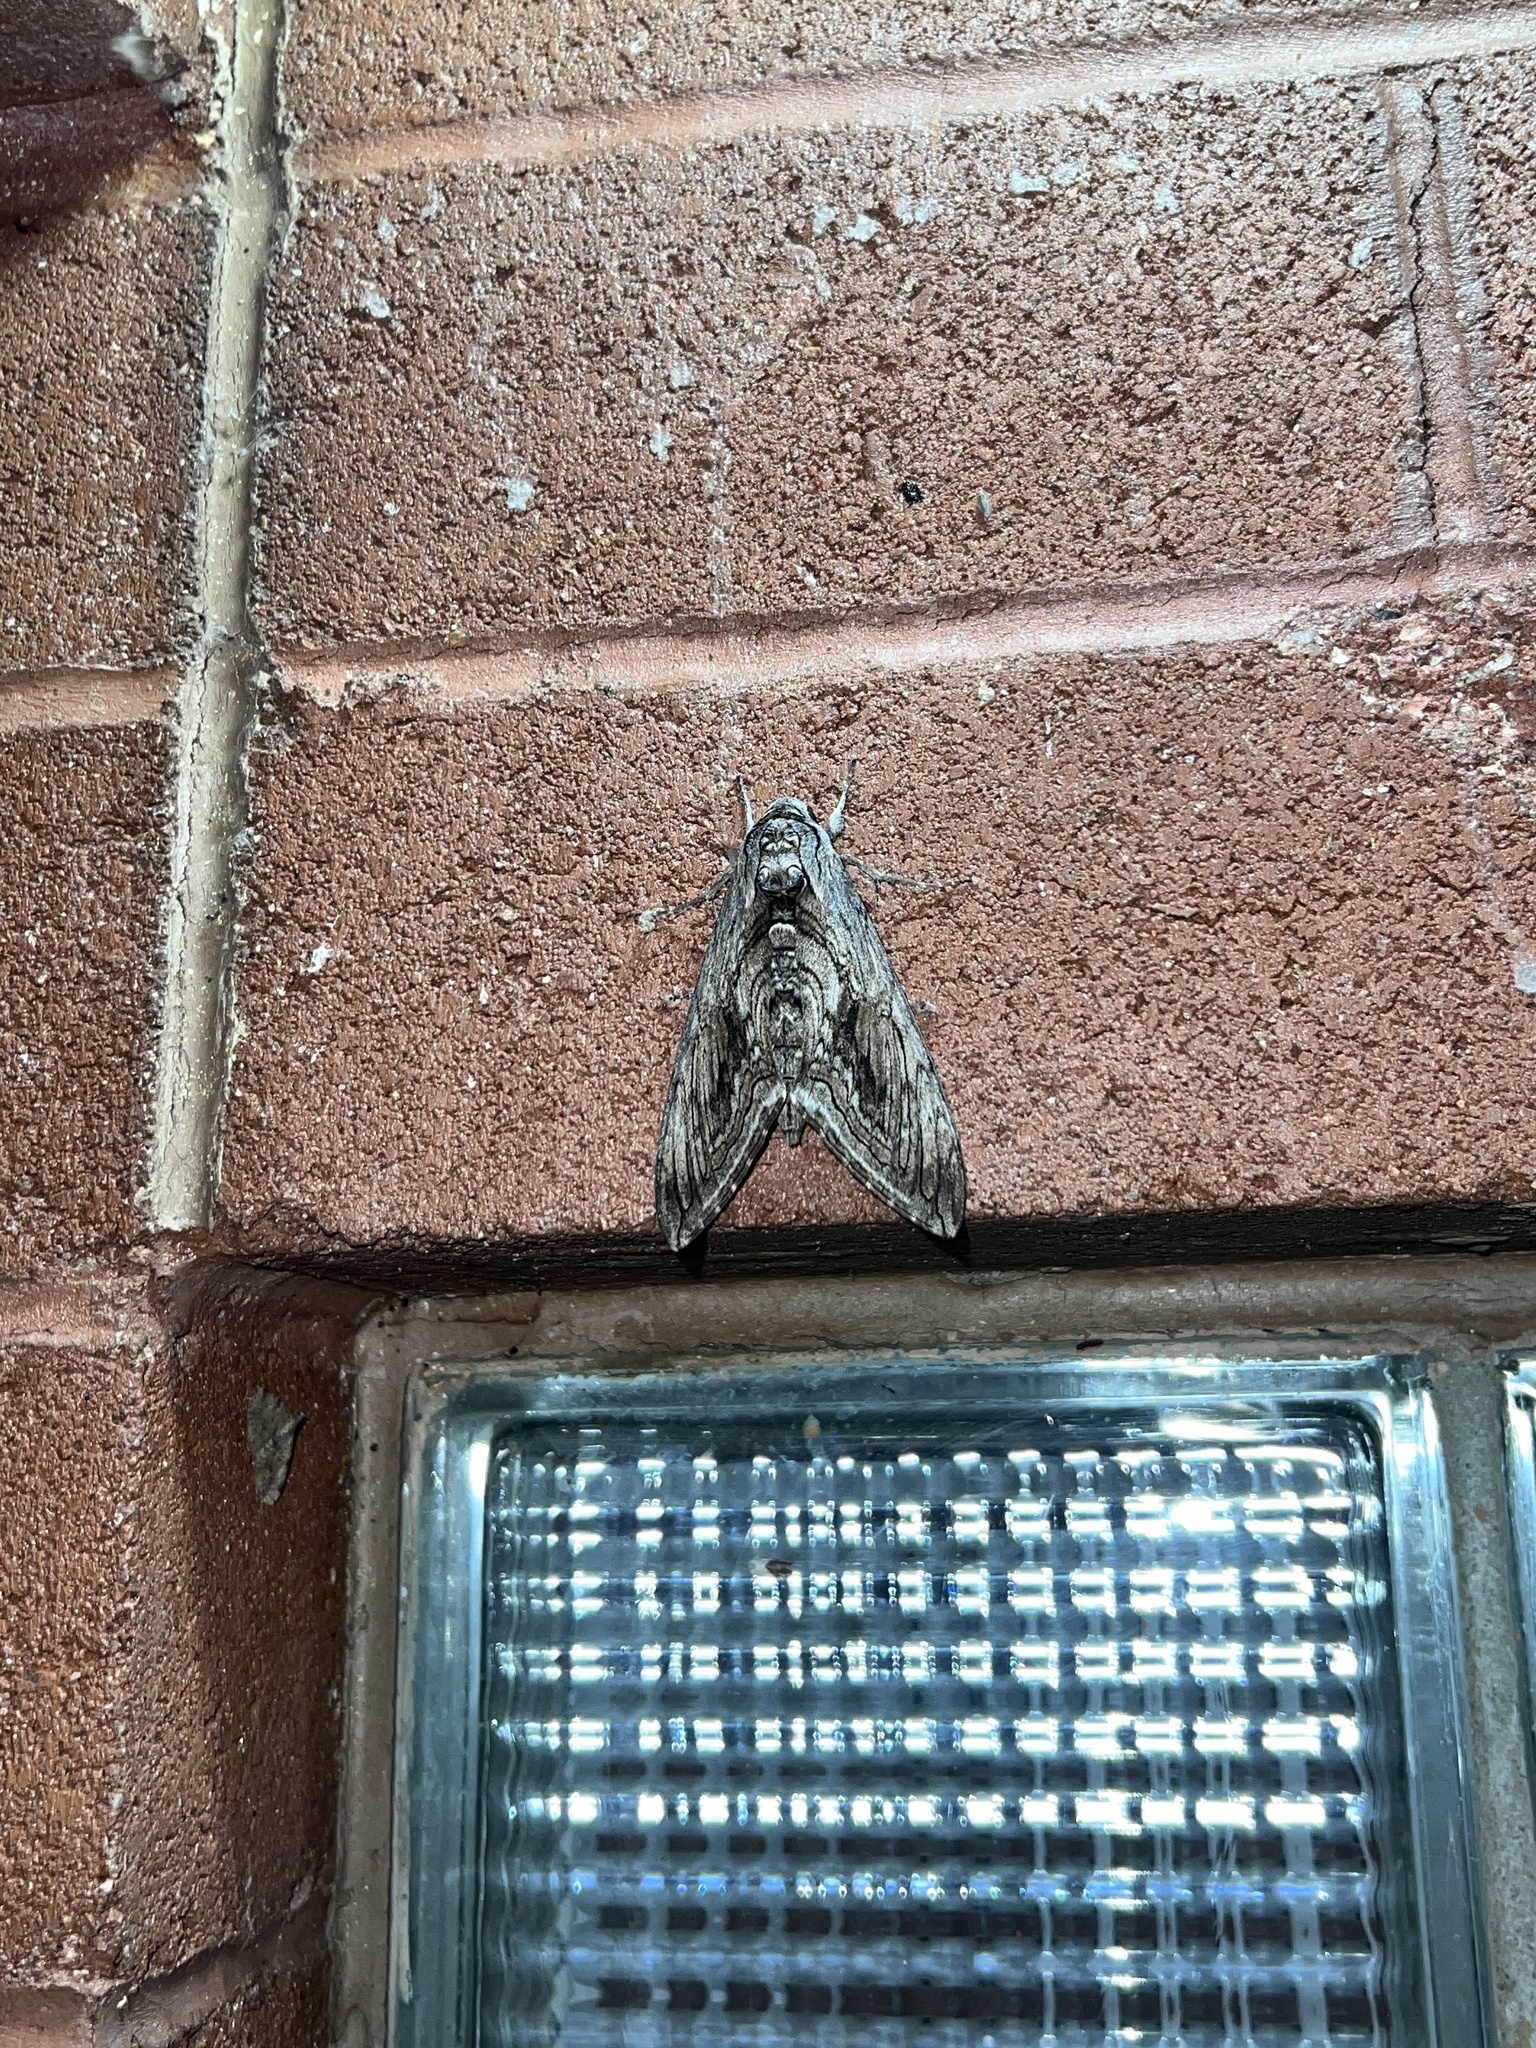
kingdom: Animalia
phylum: Arthropoda
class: Insecta
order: Lepidoptera
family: Sphingidae
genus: Manduca
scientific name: Manduca quinquemaculatus
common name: Five-spotted hawk-moth
